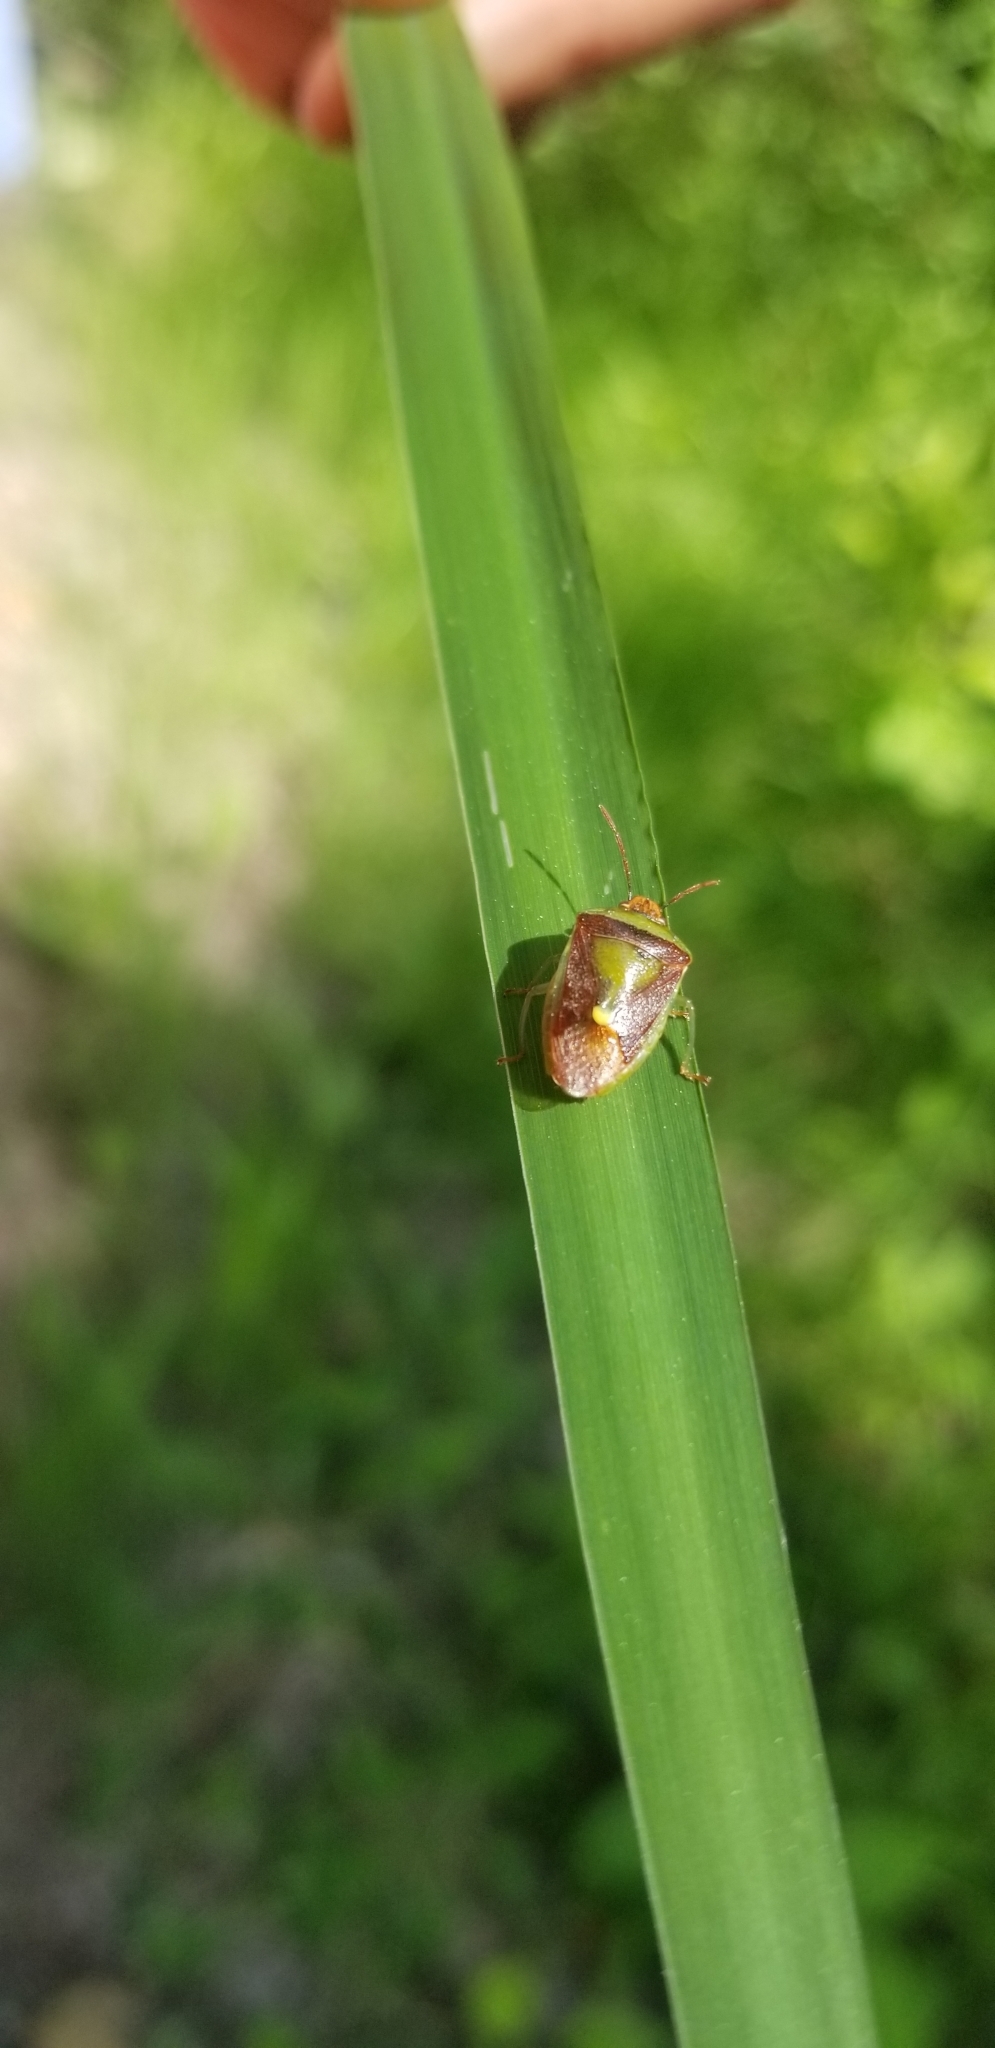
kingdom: Animalia
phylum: Arthropoda
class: Insecta
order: Hemiptera
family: Pentatomidae
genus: Banasa
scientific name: Banasa dimidiata
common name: Green burgundy stink bug
